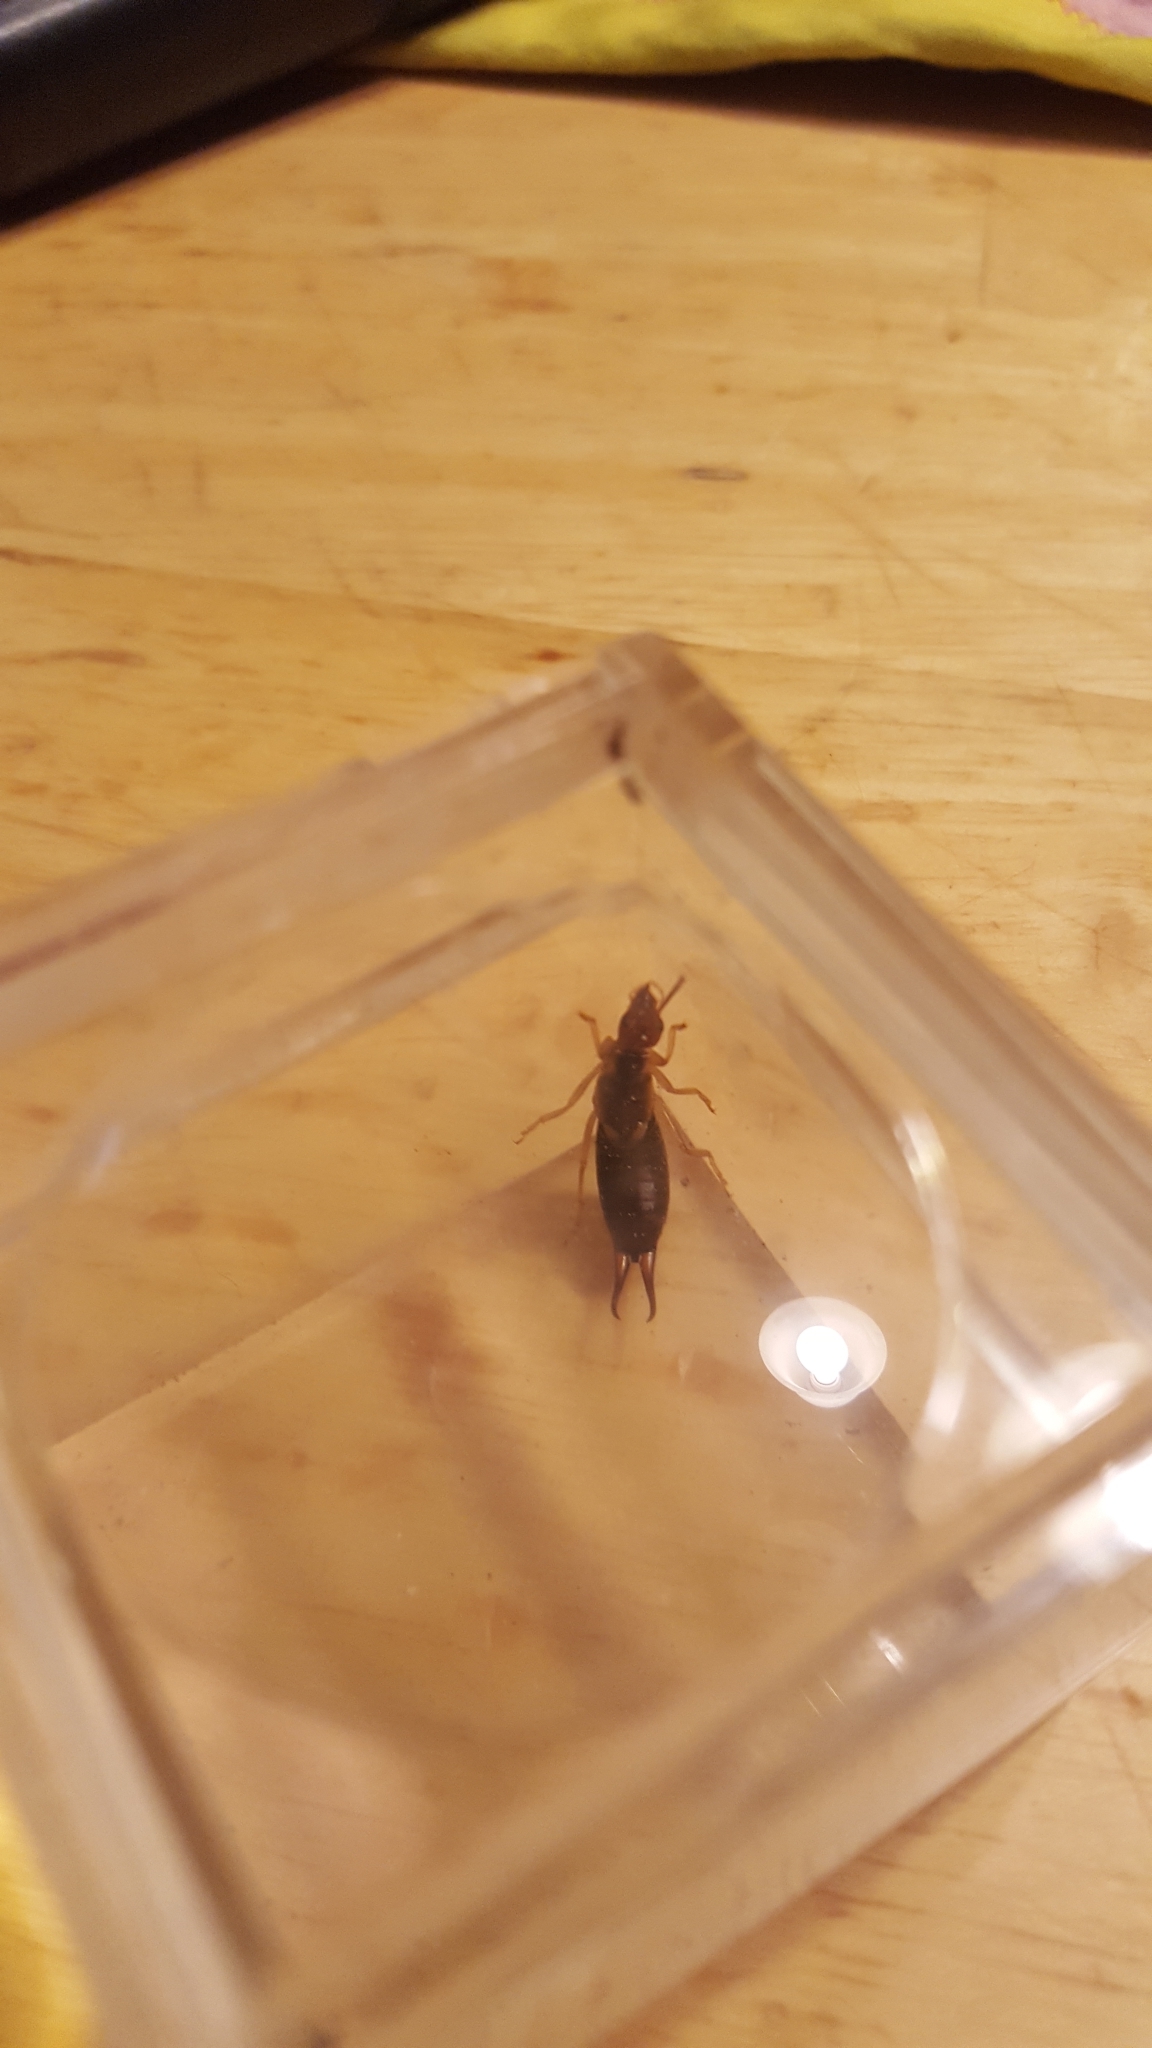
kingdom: Animalia
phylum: Arthropoda
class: Insecta
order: Dermaptera
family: Forficulidae
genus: Forficula
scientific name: Forficula
